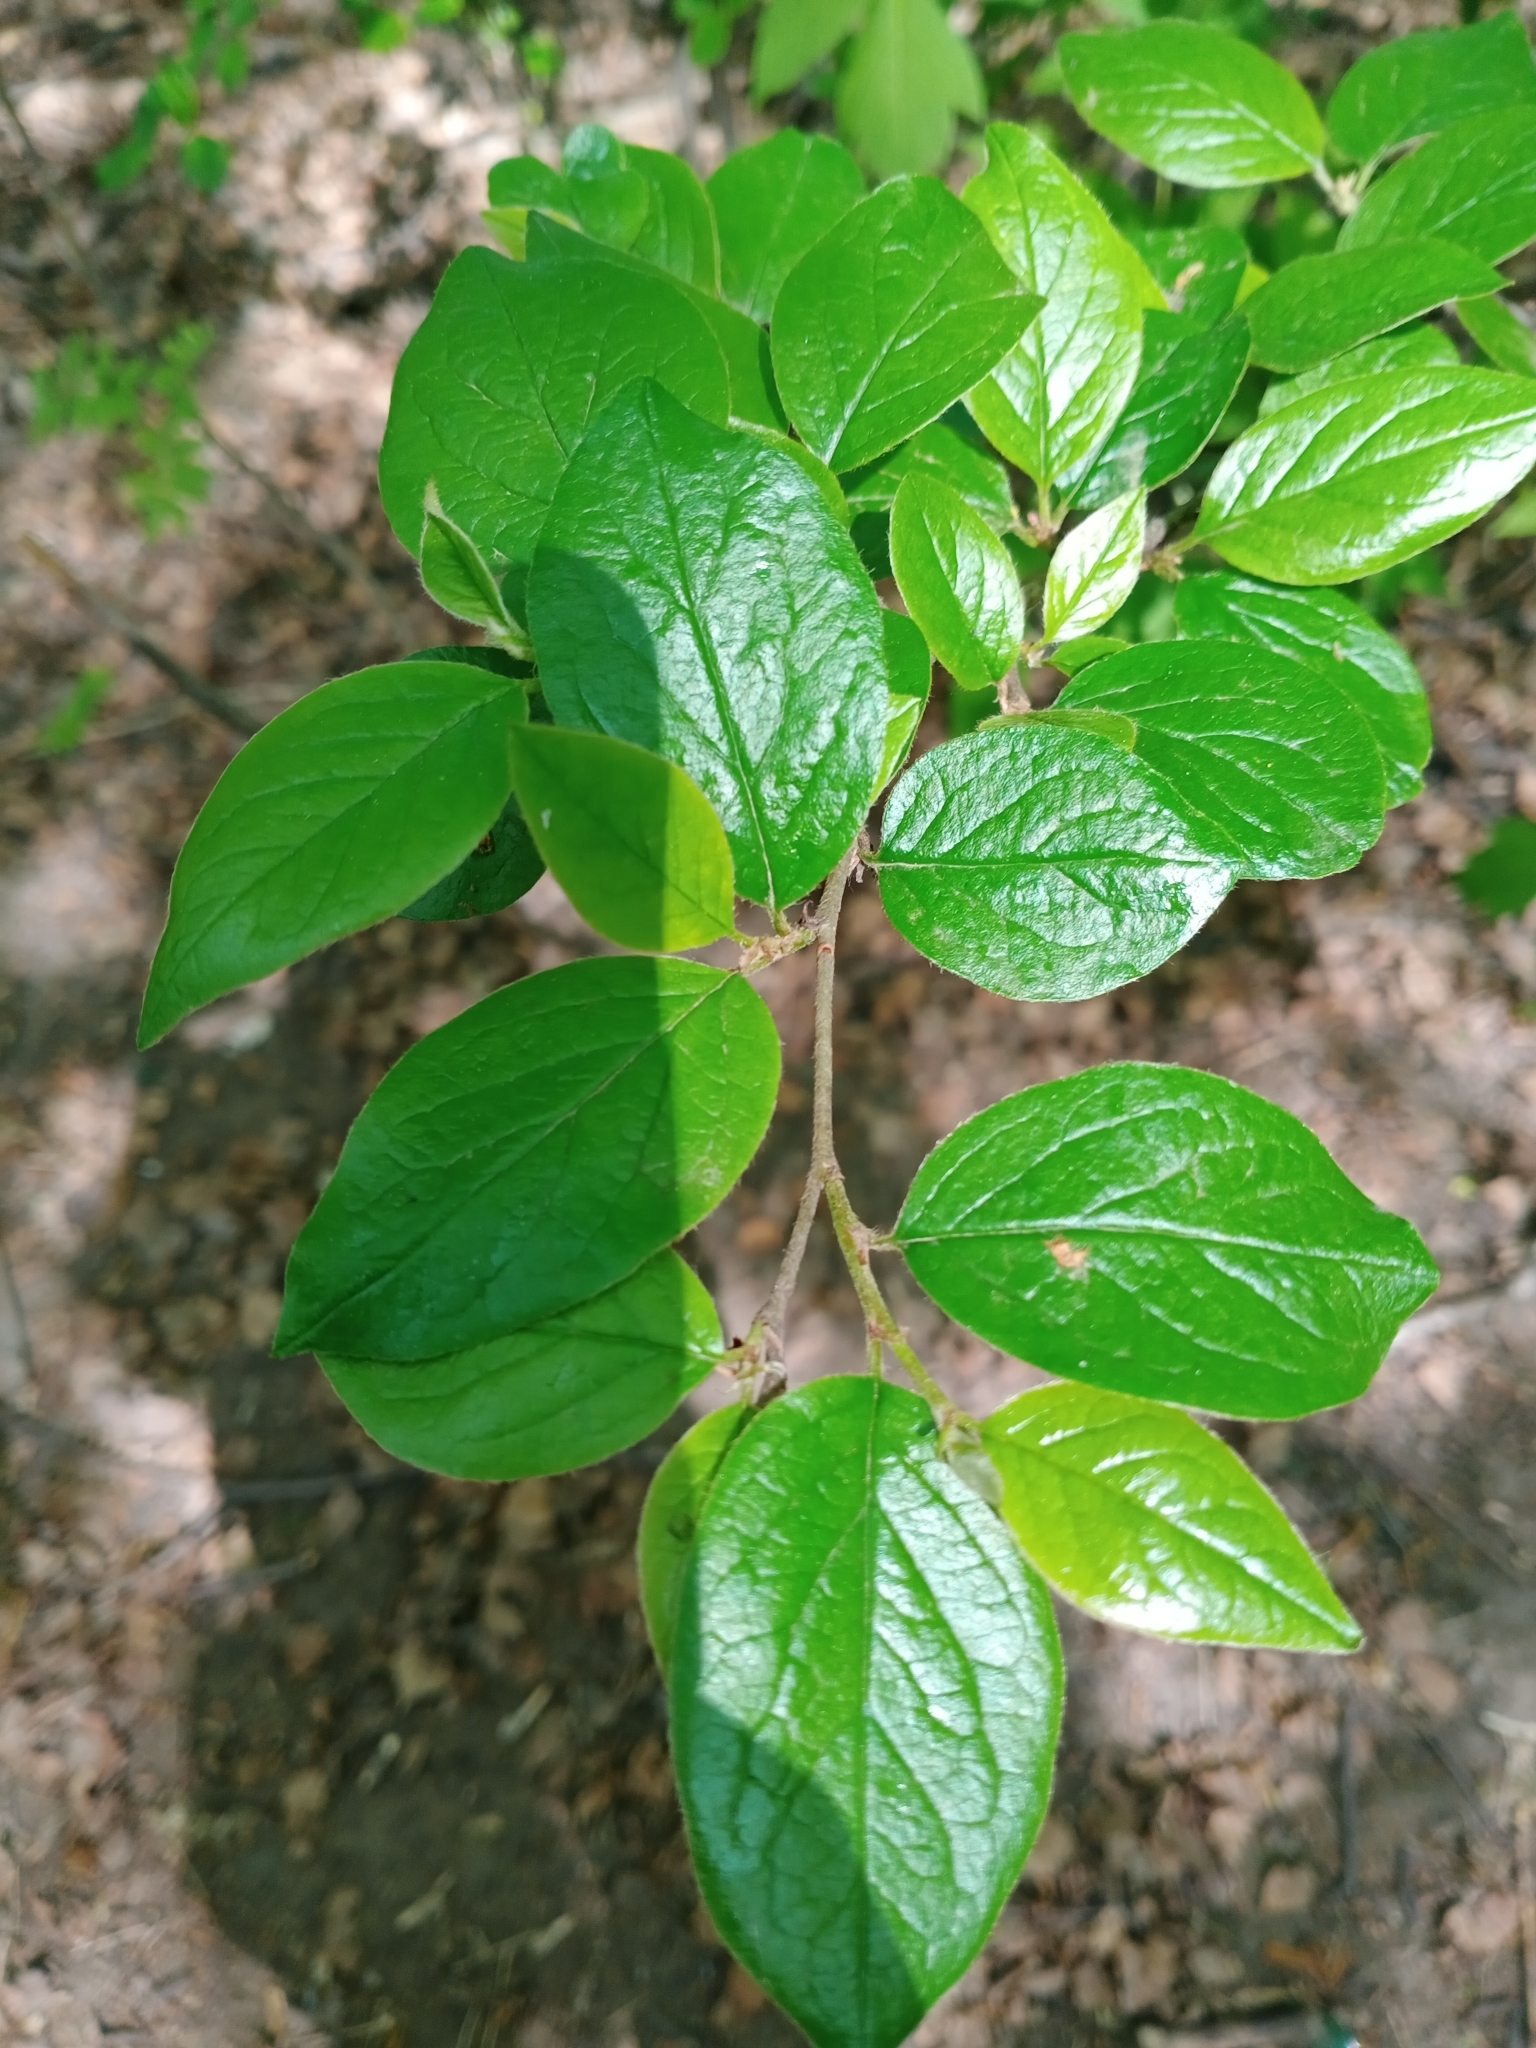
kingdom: Plantae
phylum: Tracheophyta
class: Magnoliopsida
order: Rosales
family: Rosaceae
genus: Cotoneaster
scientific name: Cotoneaster acutifolius
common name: Peking cotoneaster
